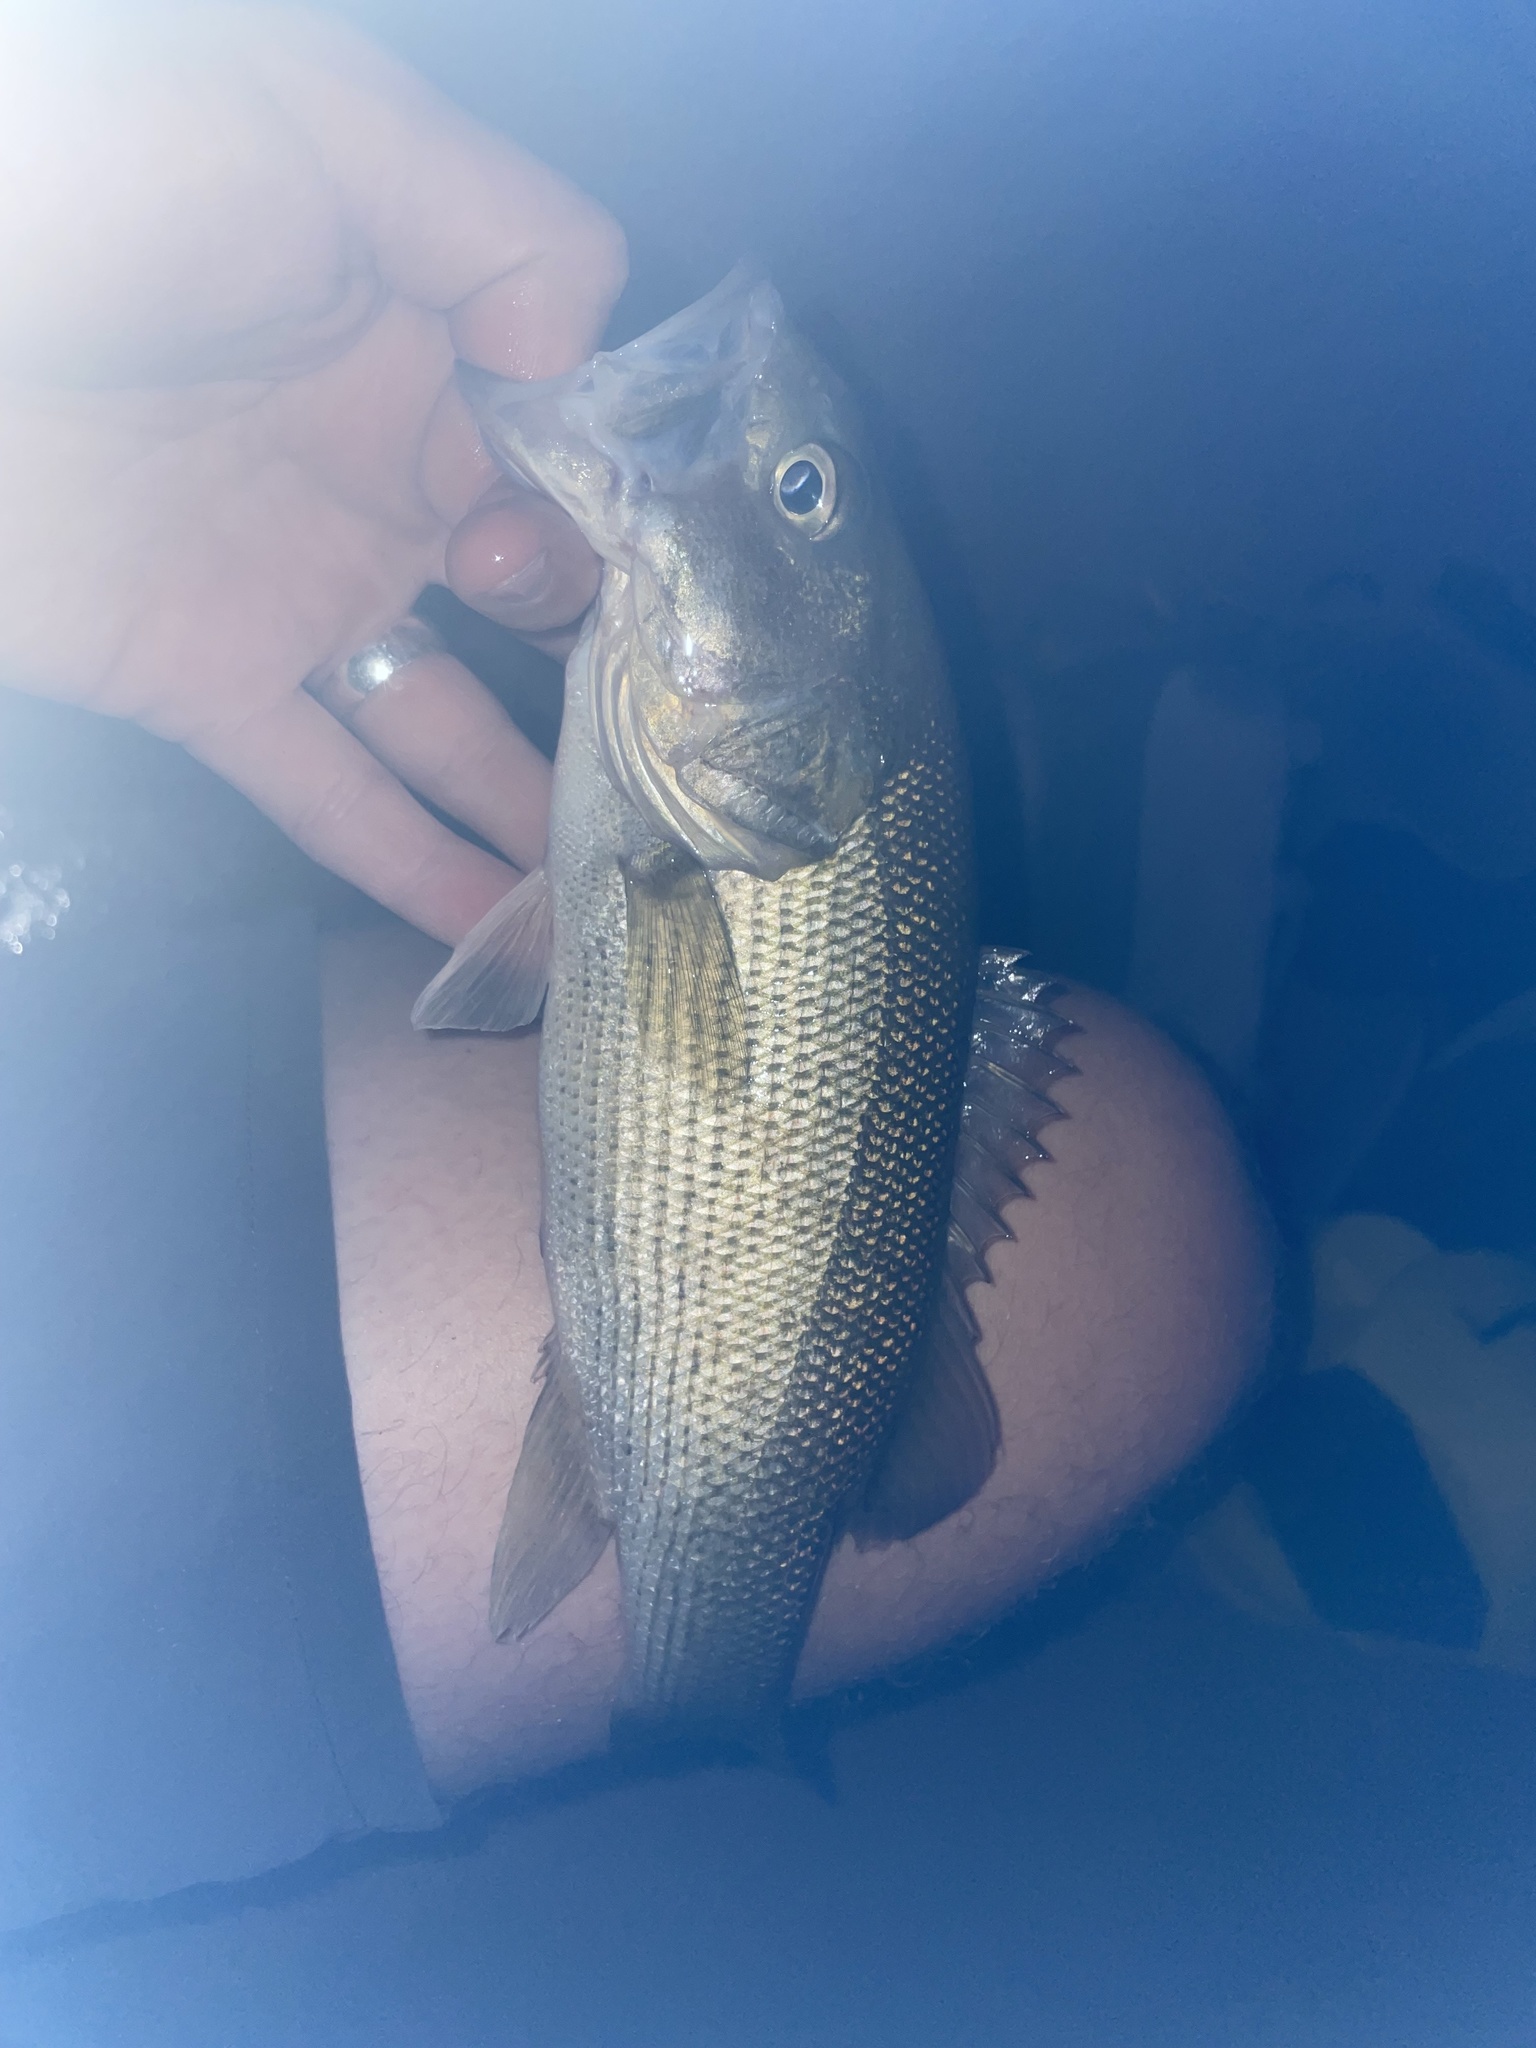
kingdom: Animalia
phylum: Chordata
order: Perciformes
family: Centrarchidae
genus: Micropterus
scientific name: Micropterus treculii
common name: Guadalupe bass
